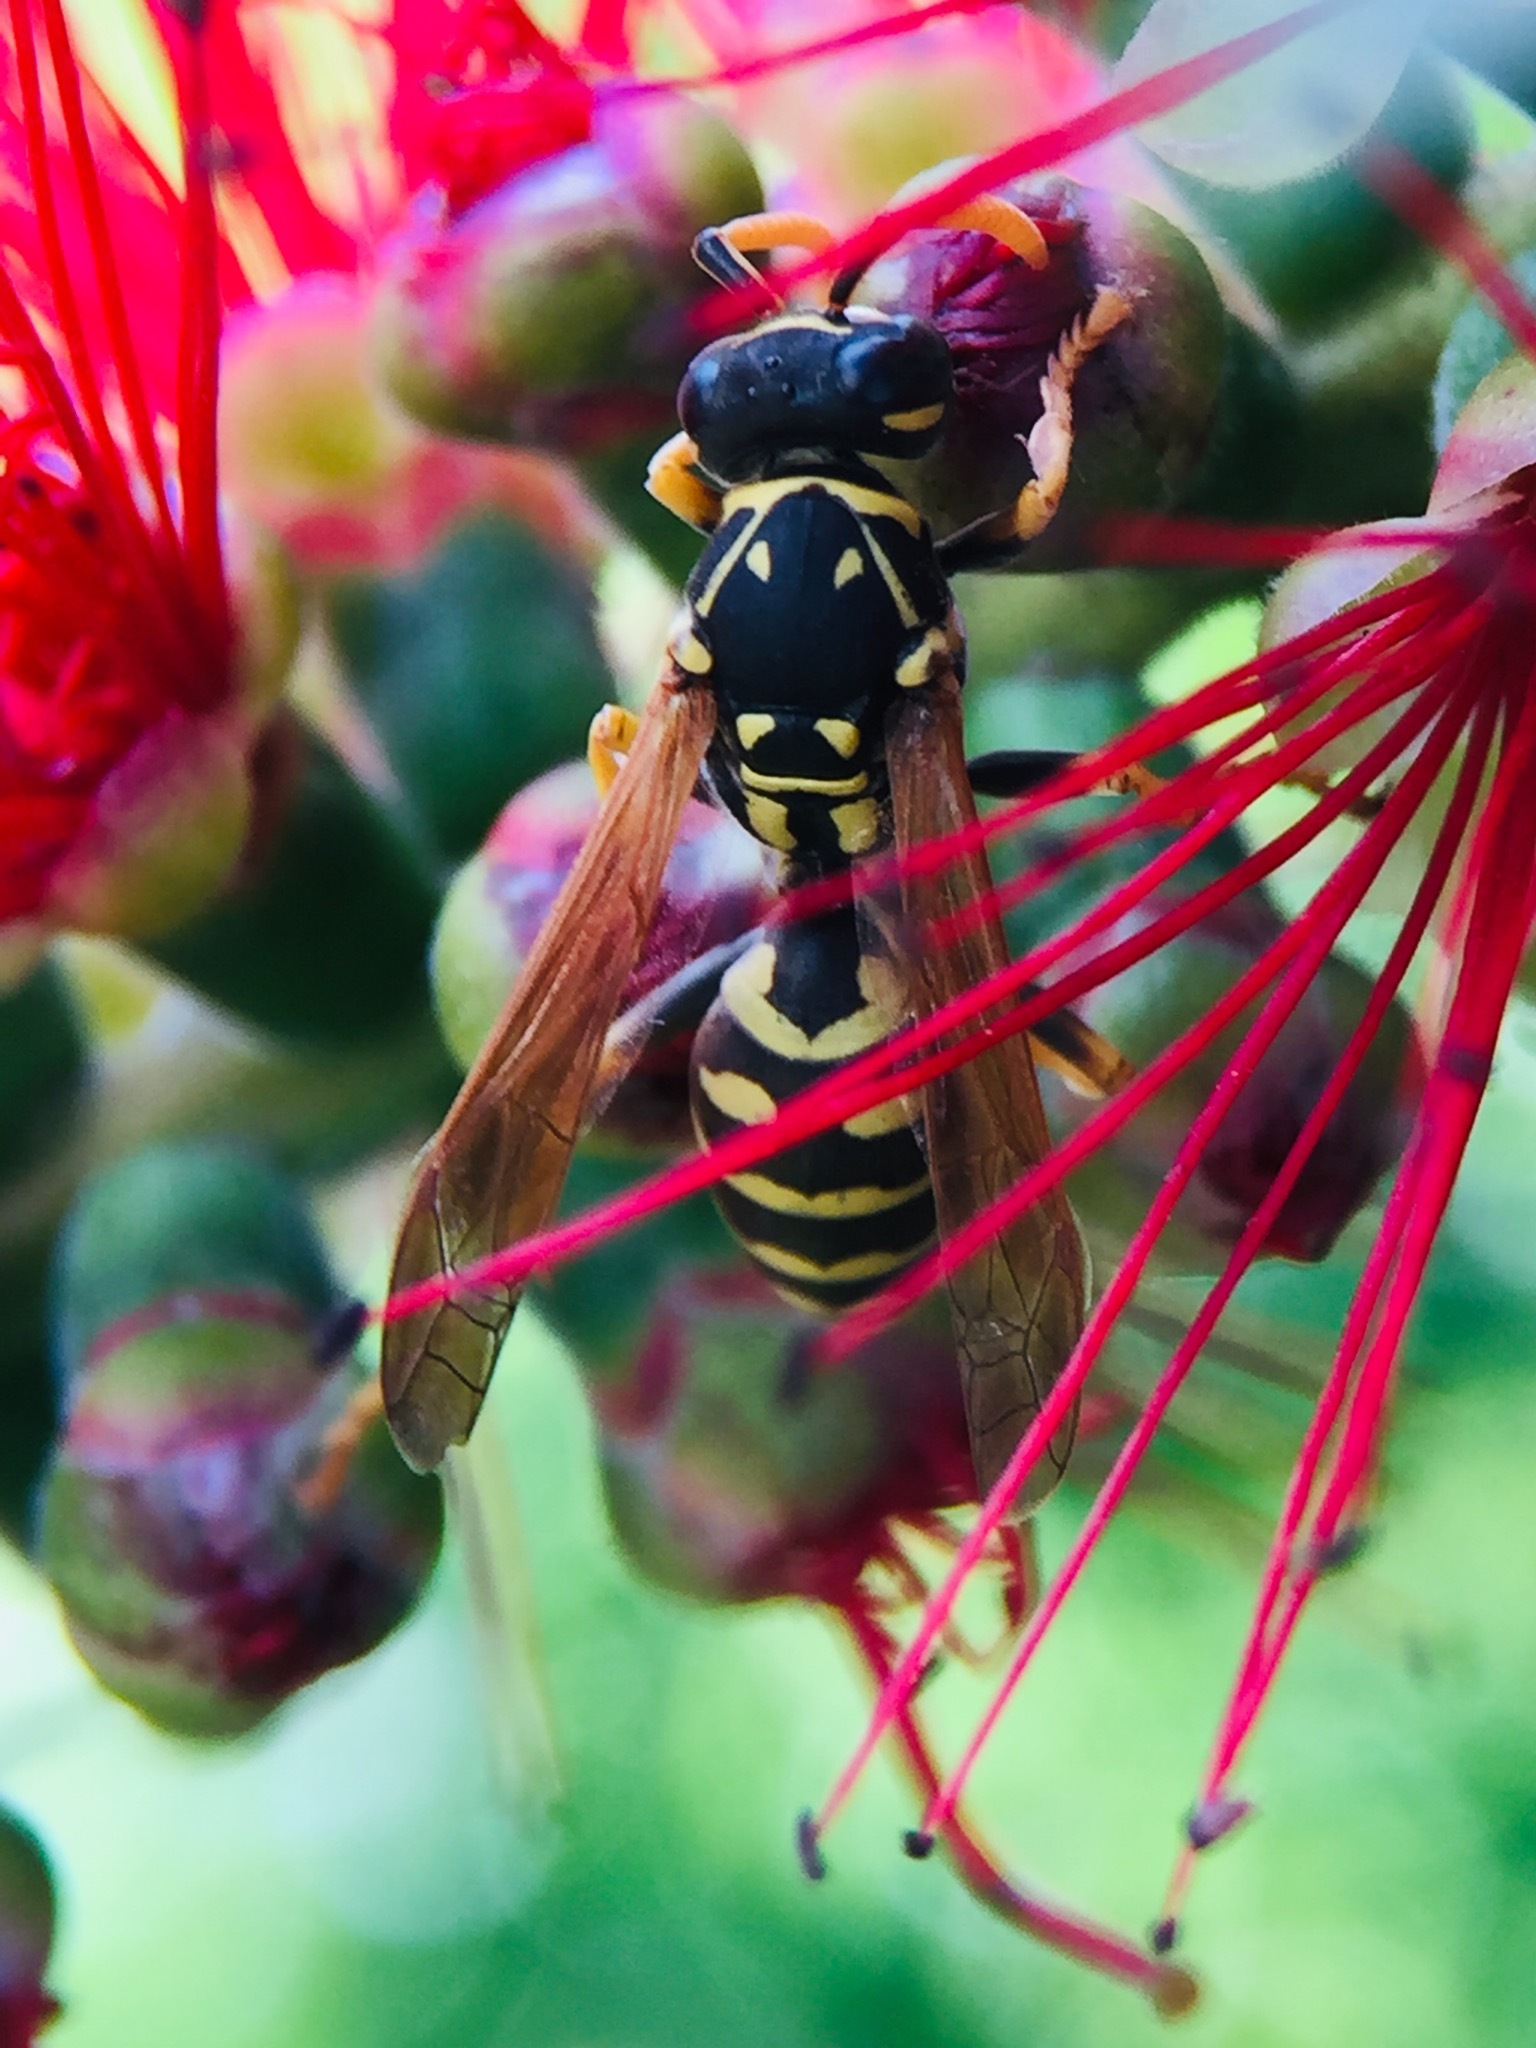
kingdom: Animalia
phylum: Arthropoda
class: Insecta
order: Hymenoptera
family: Eumenidae
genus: Polistes
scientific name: Polistes dominula
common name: Paper wasp
